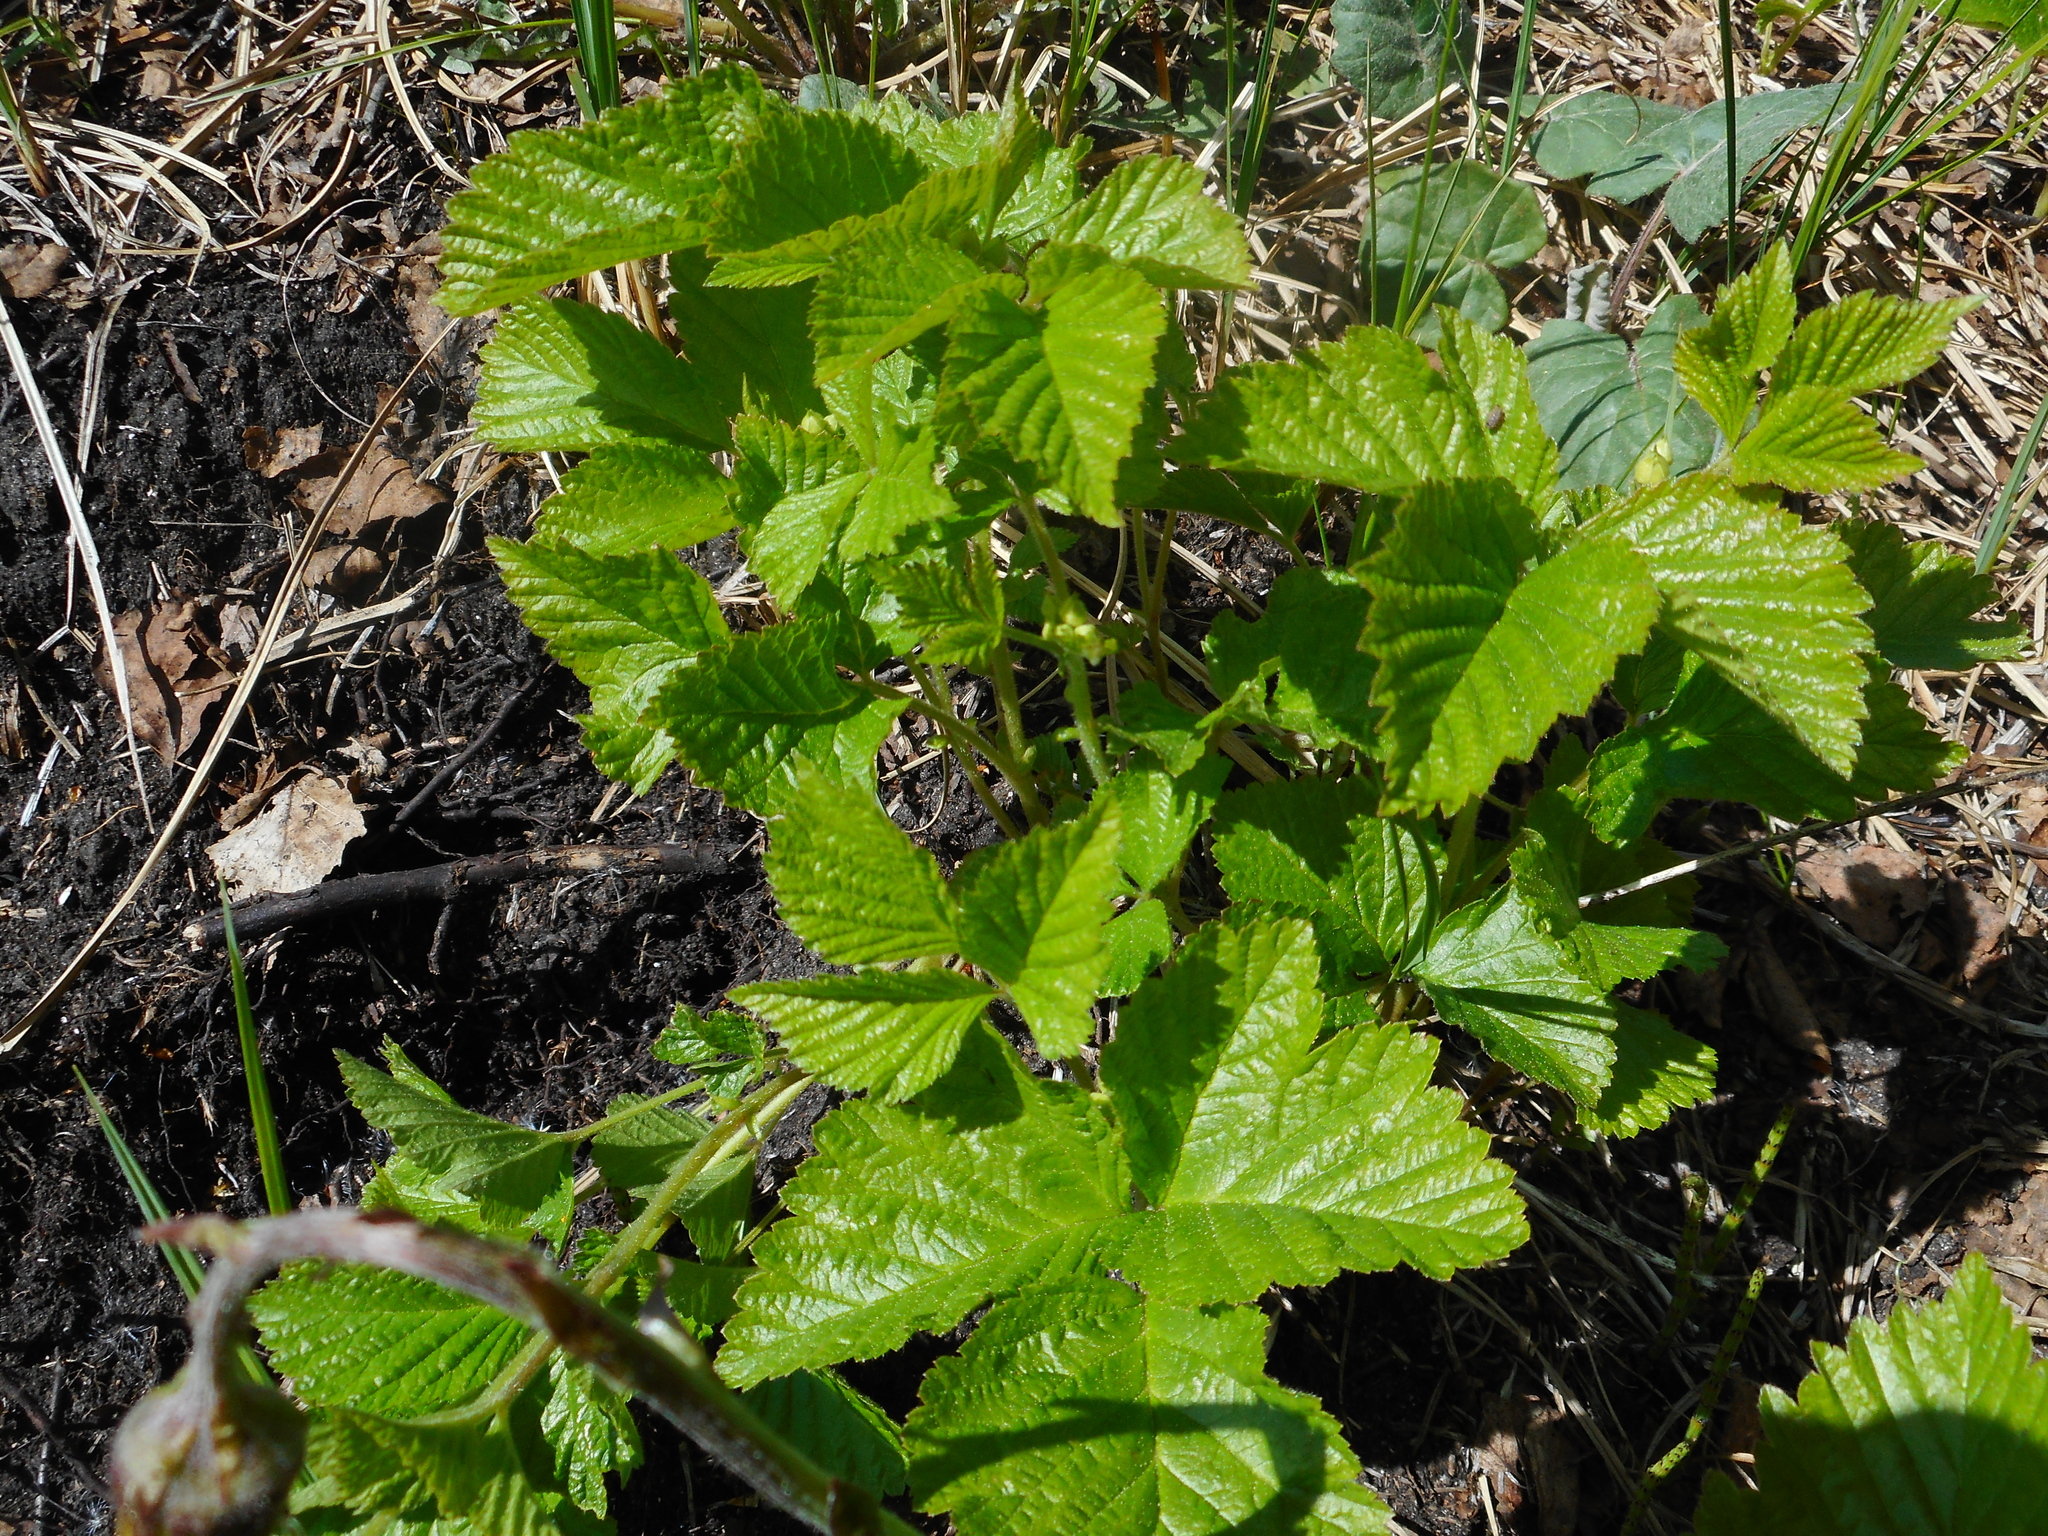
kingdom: Plantae
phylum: Tracheophyta
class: Magnoliopsida
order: Rosales
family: Rosaceae
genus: Rubus
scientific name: Rubus saxatilis
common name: Stone bramble
